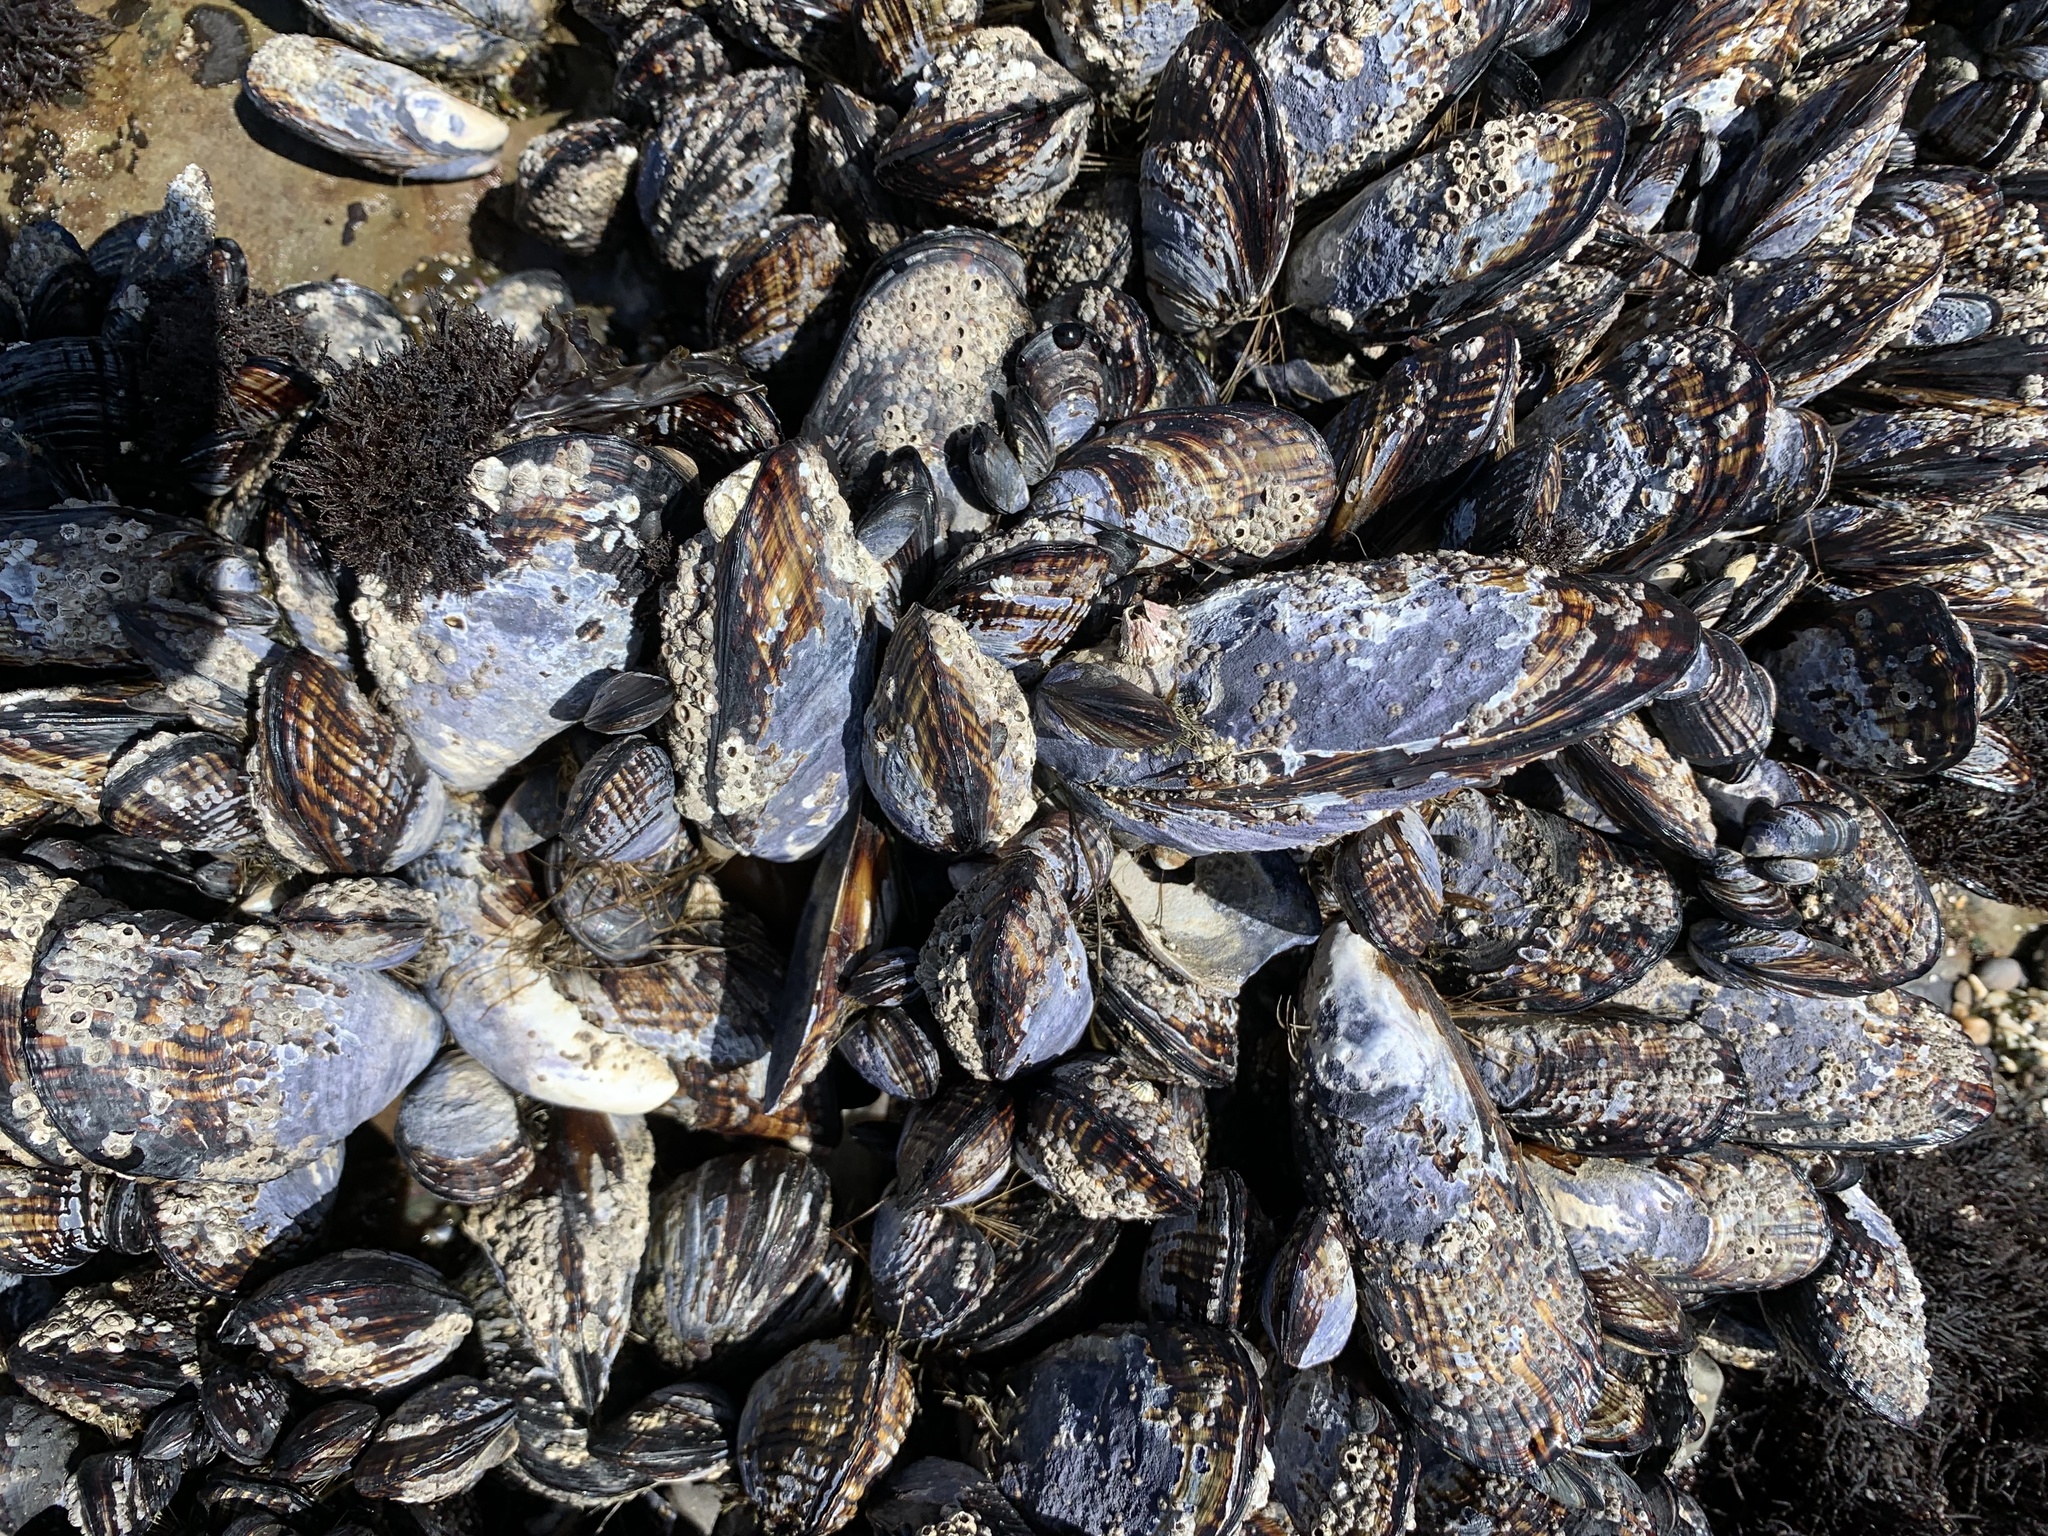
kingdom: Animalia
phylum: Mollusca
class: Bivalvia
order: Mytilida
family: Mytilidae
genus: Mytilus
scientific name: Mytilus californianus
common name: California mussel
